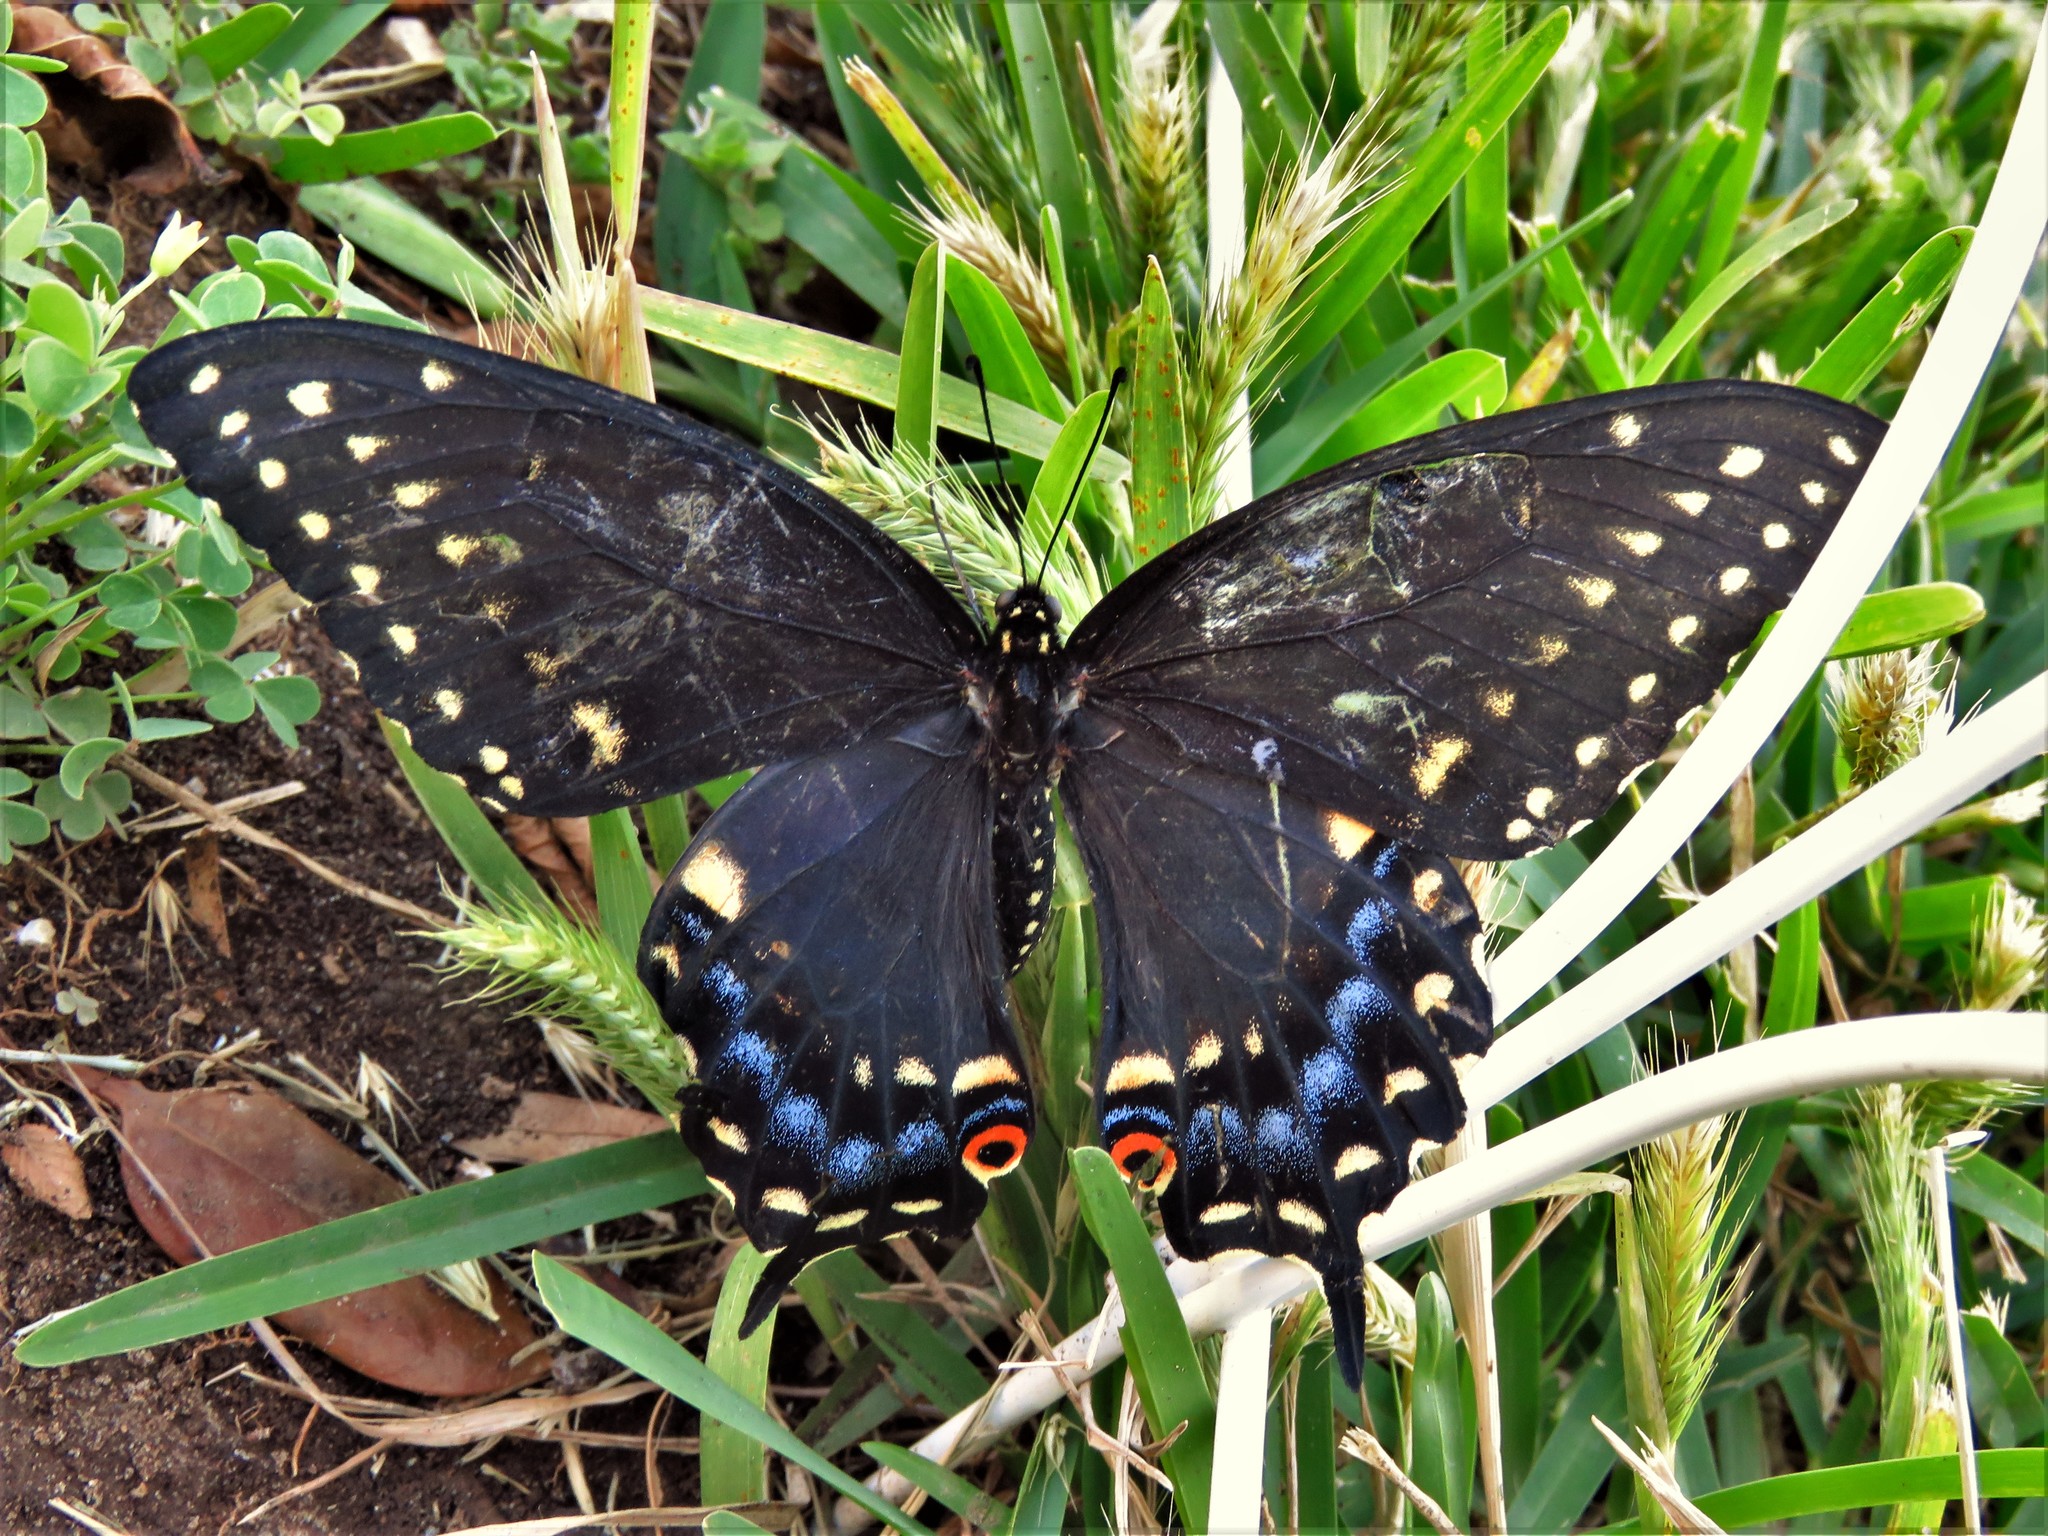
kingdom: Animalia
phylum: Arthropoda
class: Insecta
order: Lepidoptera
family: Papilionidae
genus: Papilio
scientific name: Papilio polyxenes
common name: Black swallowtail
